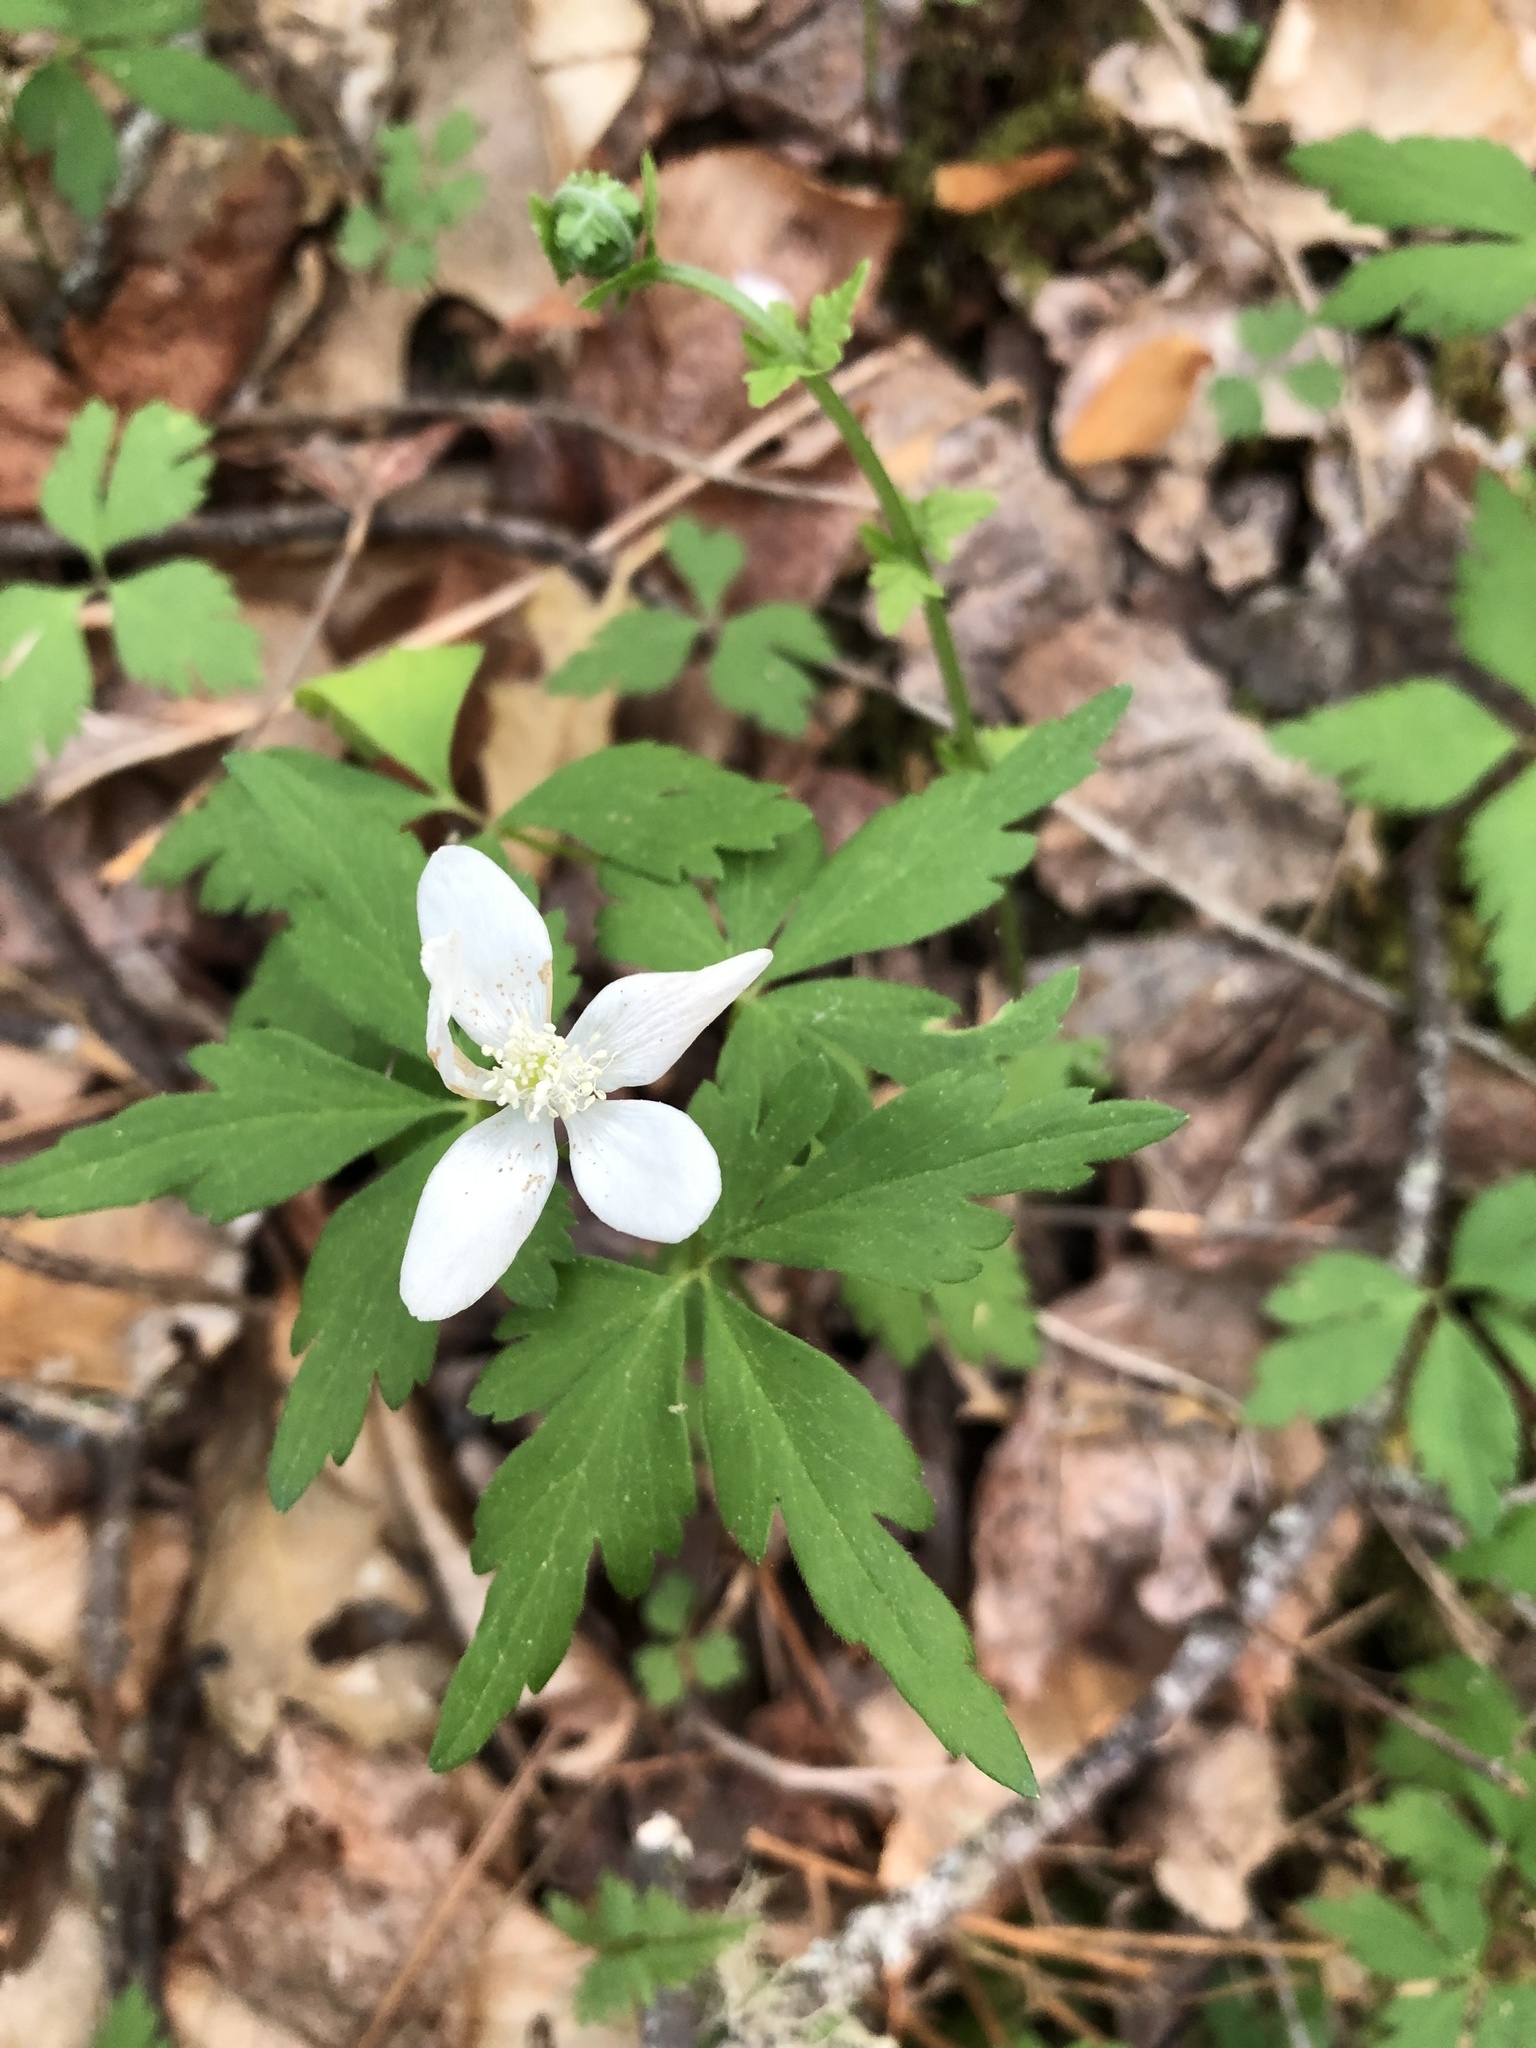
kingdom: Plantae
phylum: Tracheophyta
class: Magnoliopsida
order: Ranunculales
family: Ranunculaceae
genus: Anemone
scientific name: Anemone quinquefolia
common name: Wood anemone
